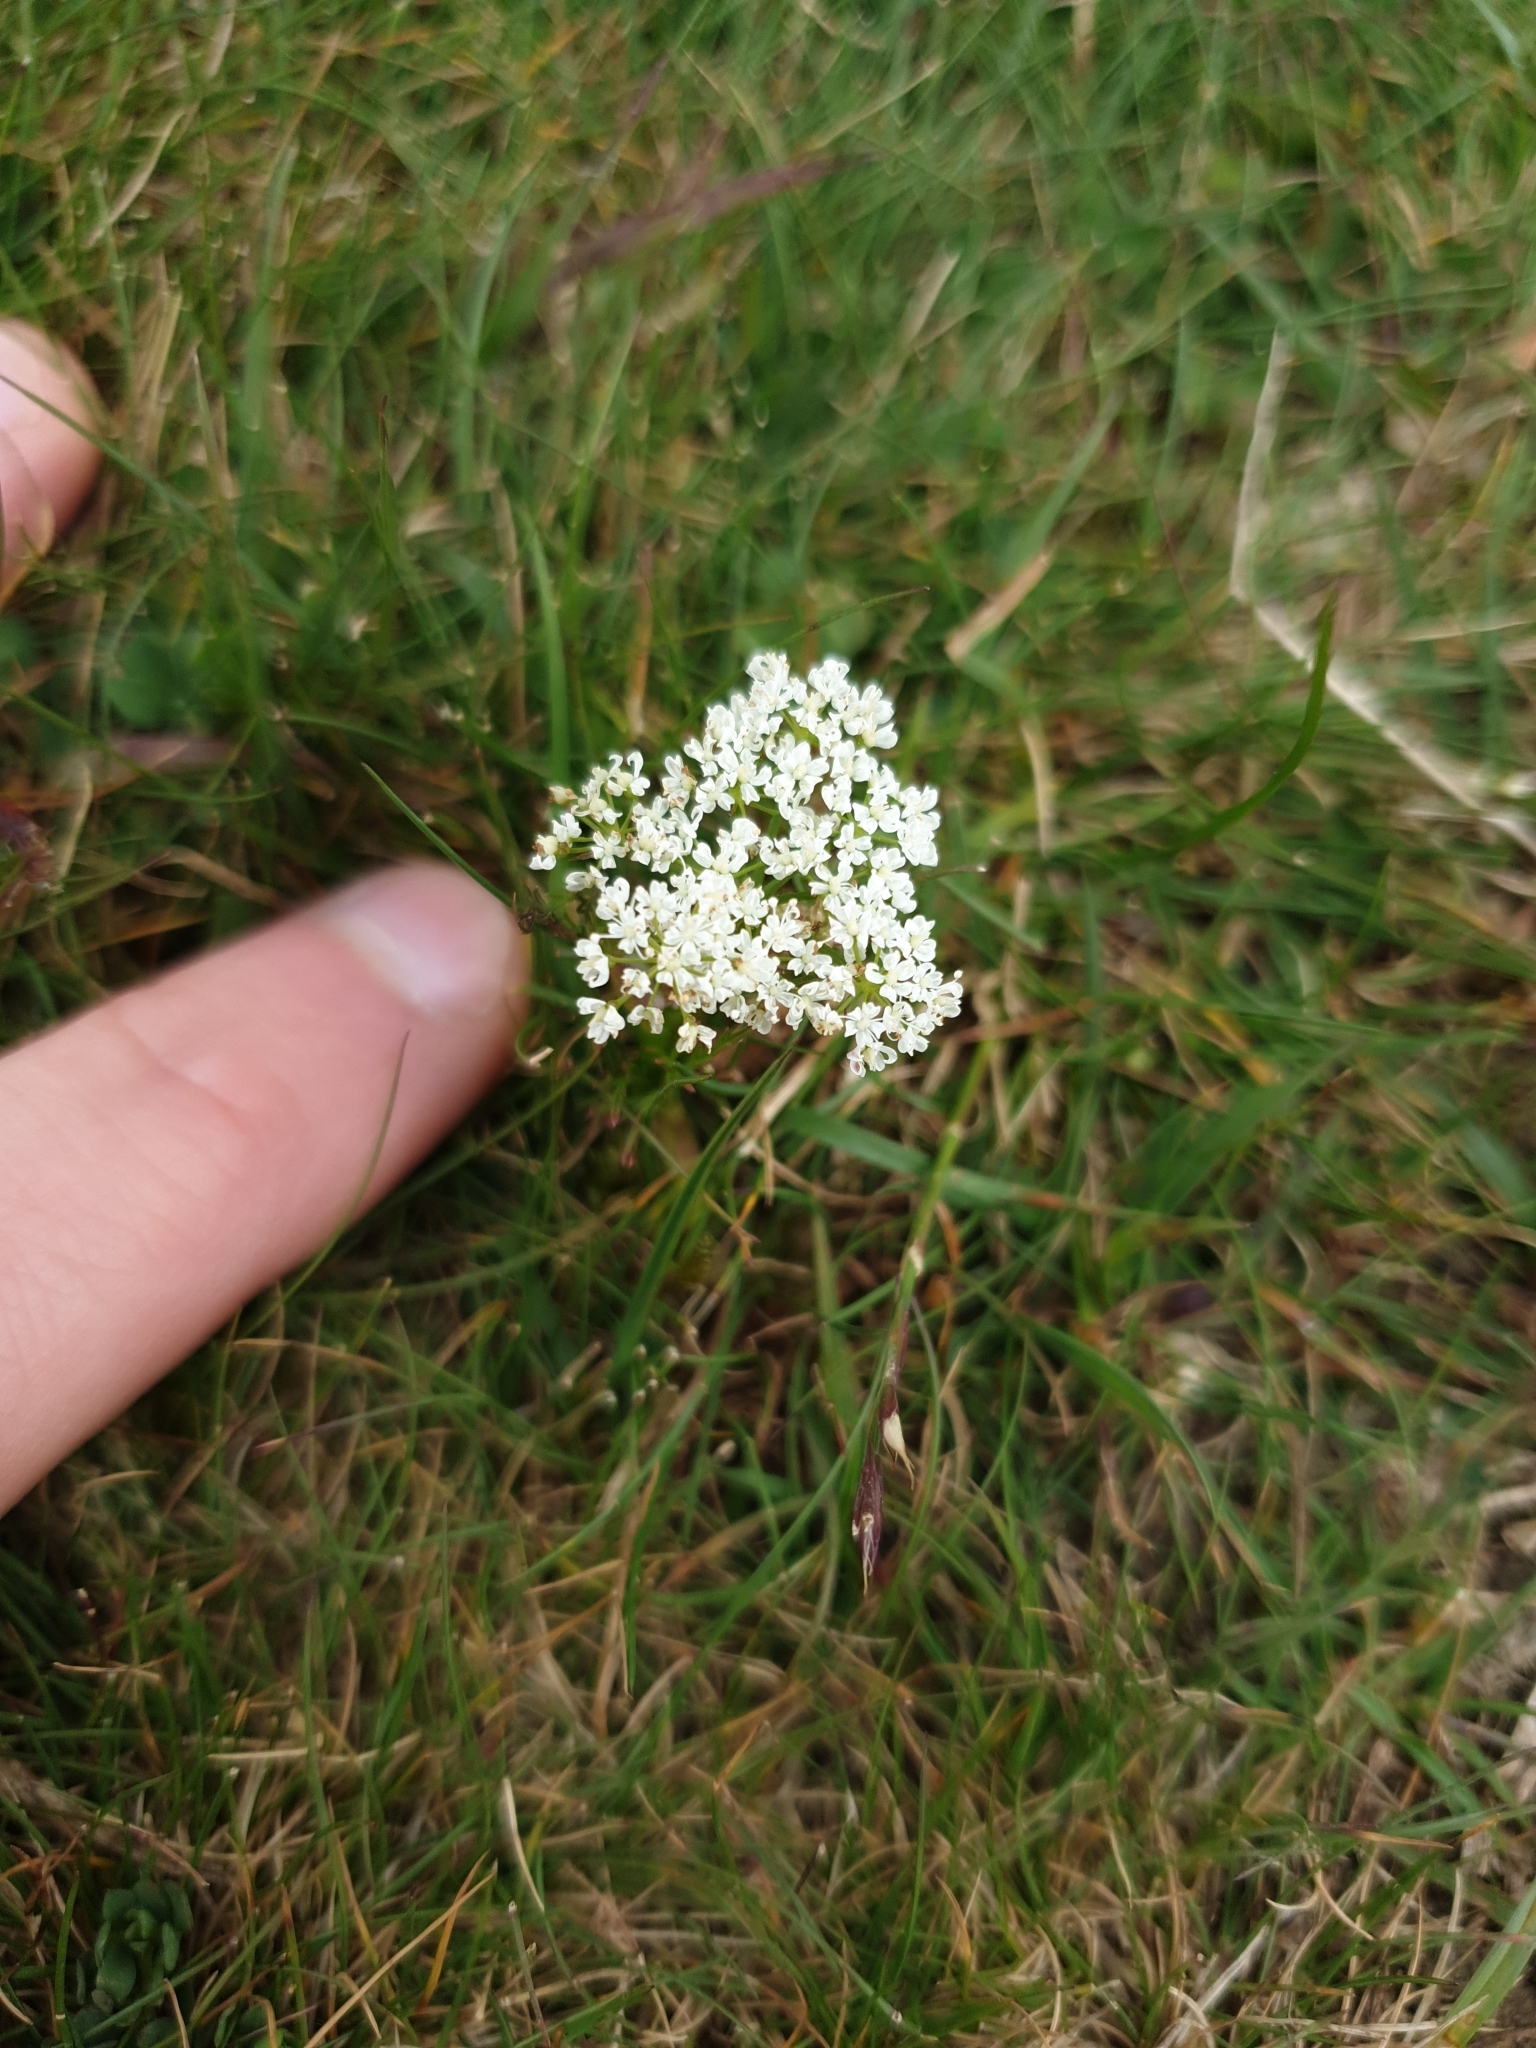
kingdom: Plantae
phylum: Tracheophyta
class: Magnoliopsida
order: Apiales
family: Apiaceae
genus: Conopodium
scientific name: Conopodium majus
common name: Pignut
